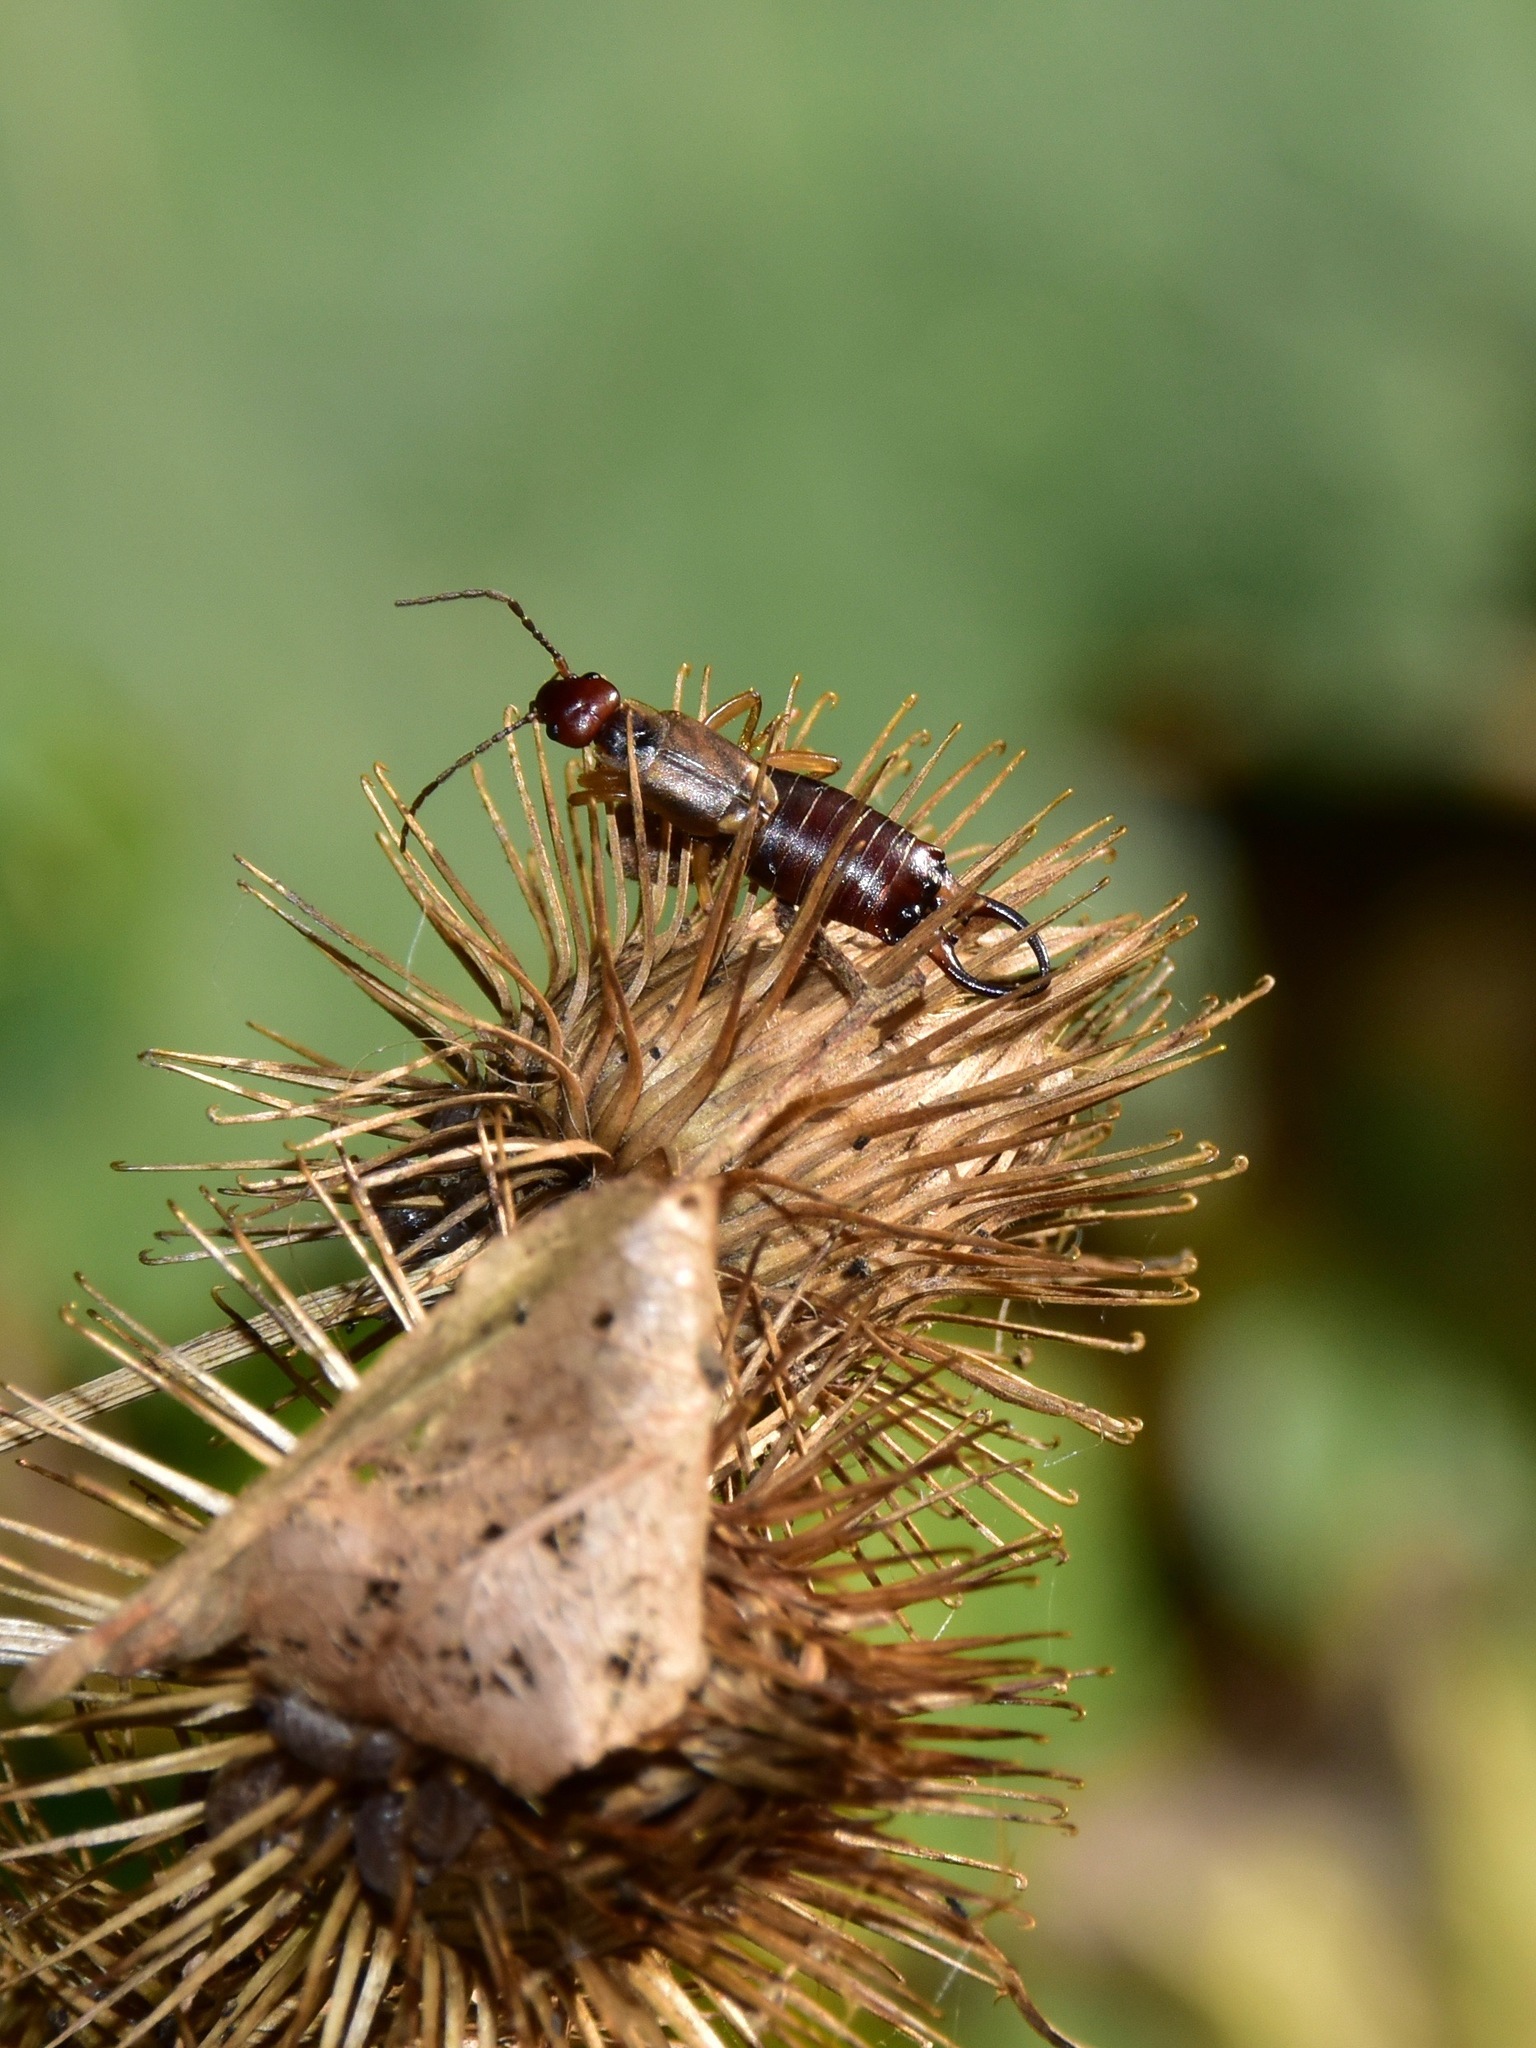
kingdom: Animalia
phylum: Arthropoda
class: Insecta
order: Dermaptera
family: Forficulidae
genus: Forficula
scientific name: Forficula
